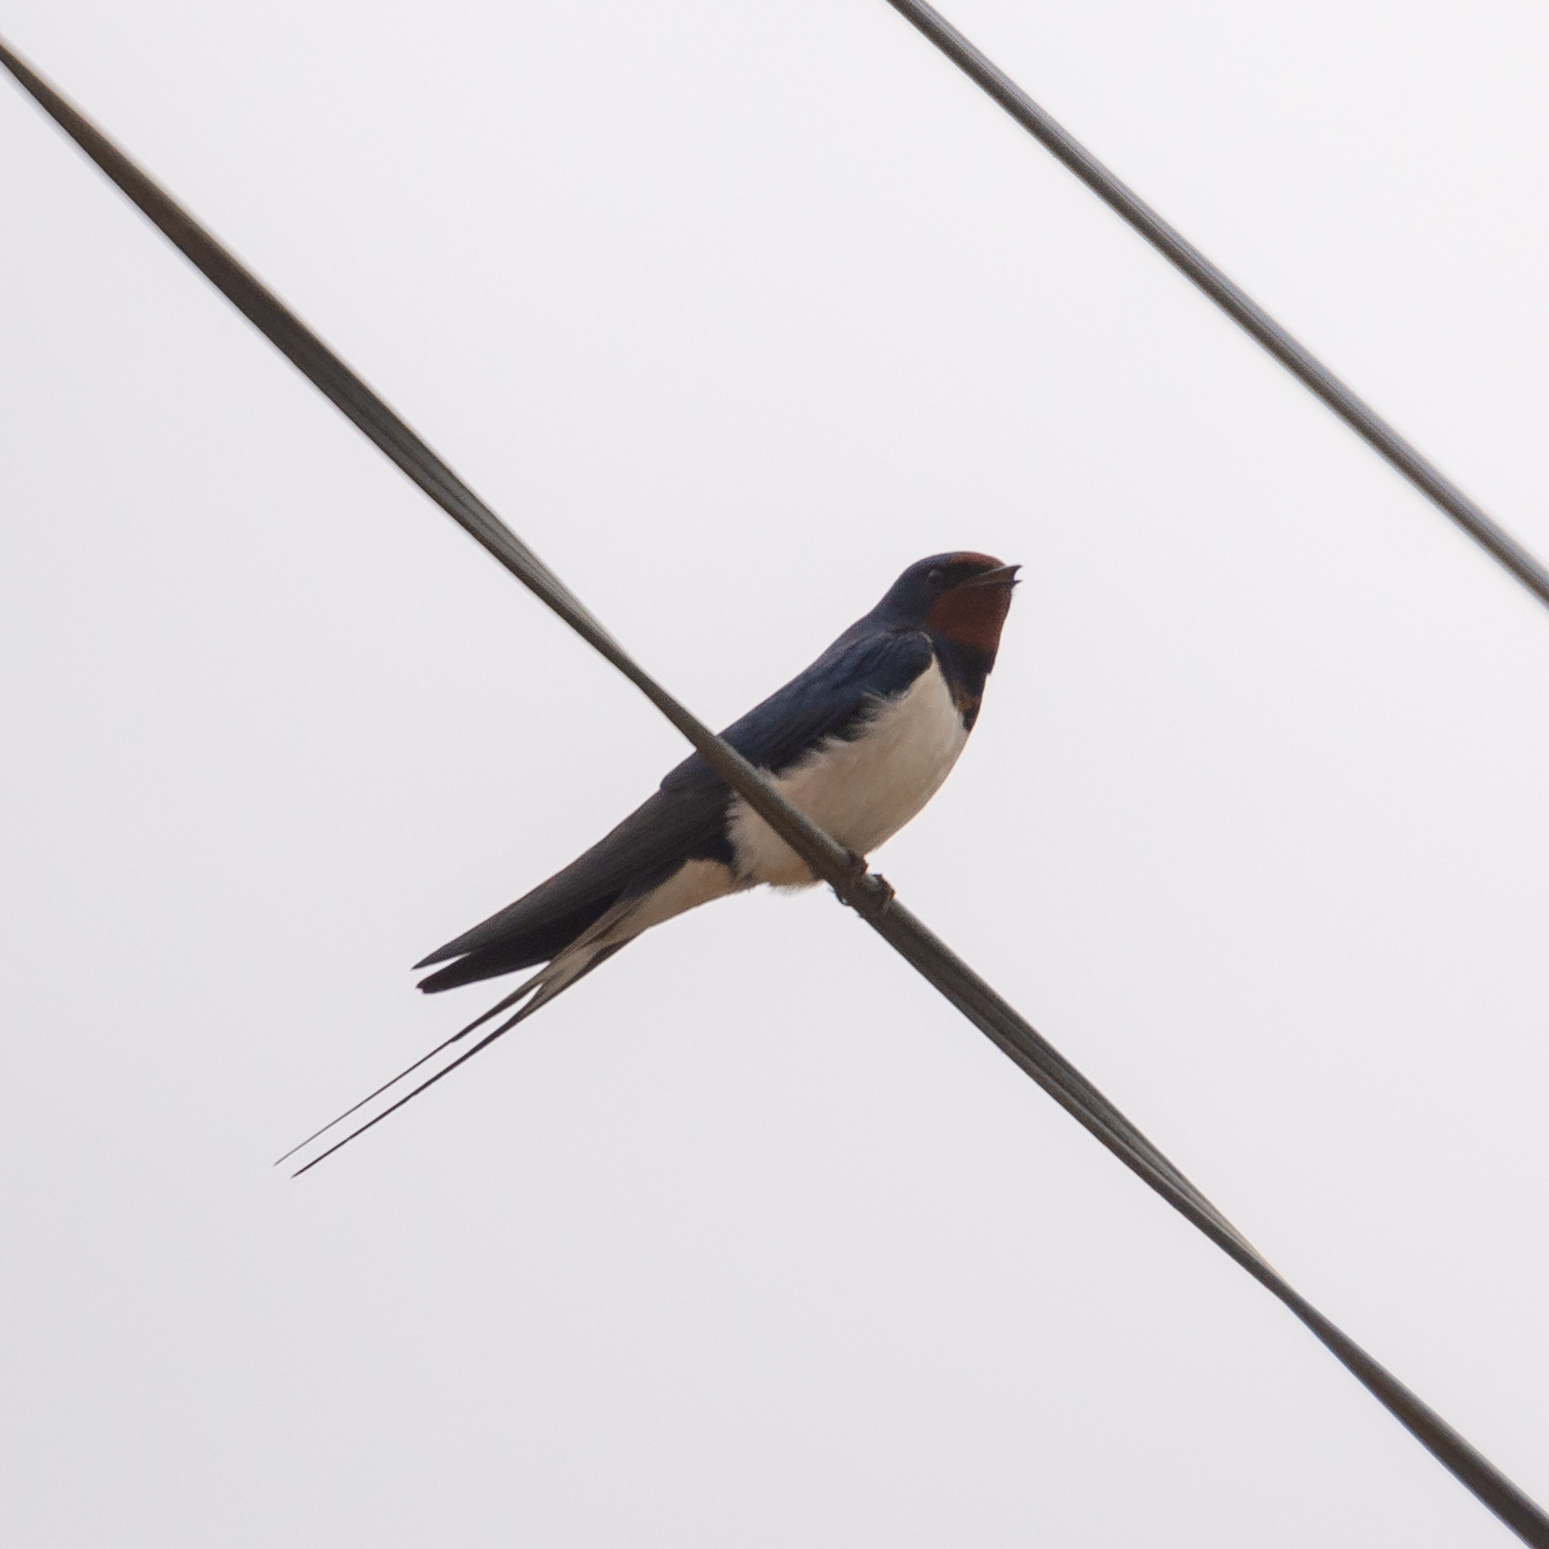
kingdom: Animalia
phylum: Chordata
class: Aves
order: Passeriformes
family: Hirundinidae
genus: Hirundo
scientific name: Hirundo rustica
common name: Barn swallow
